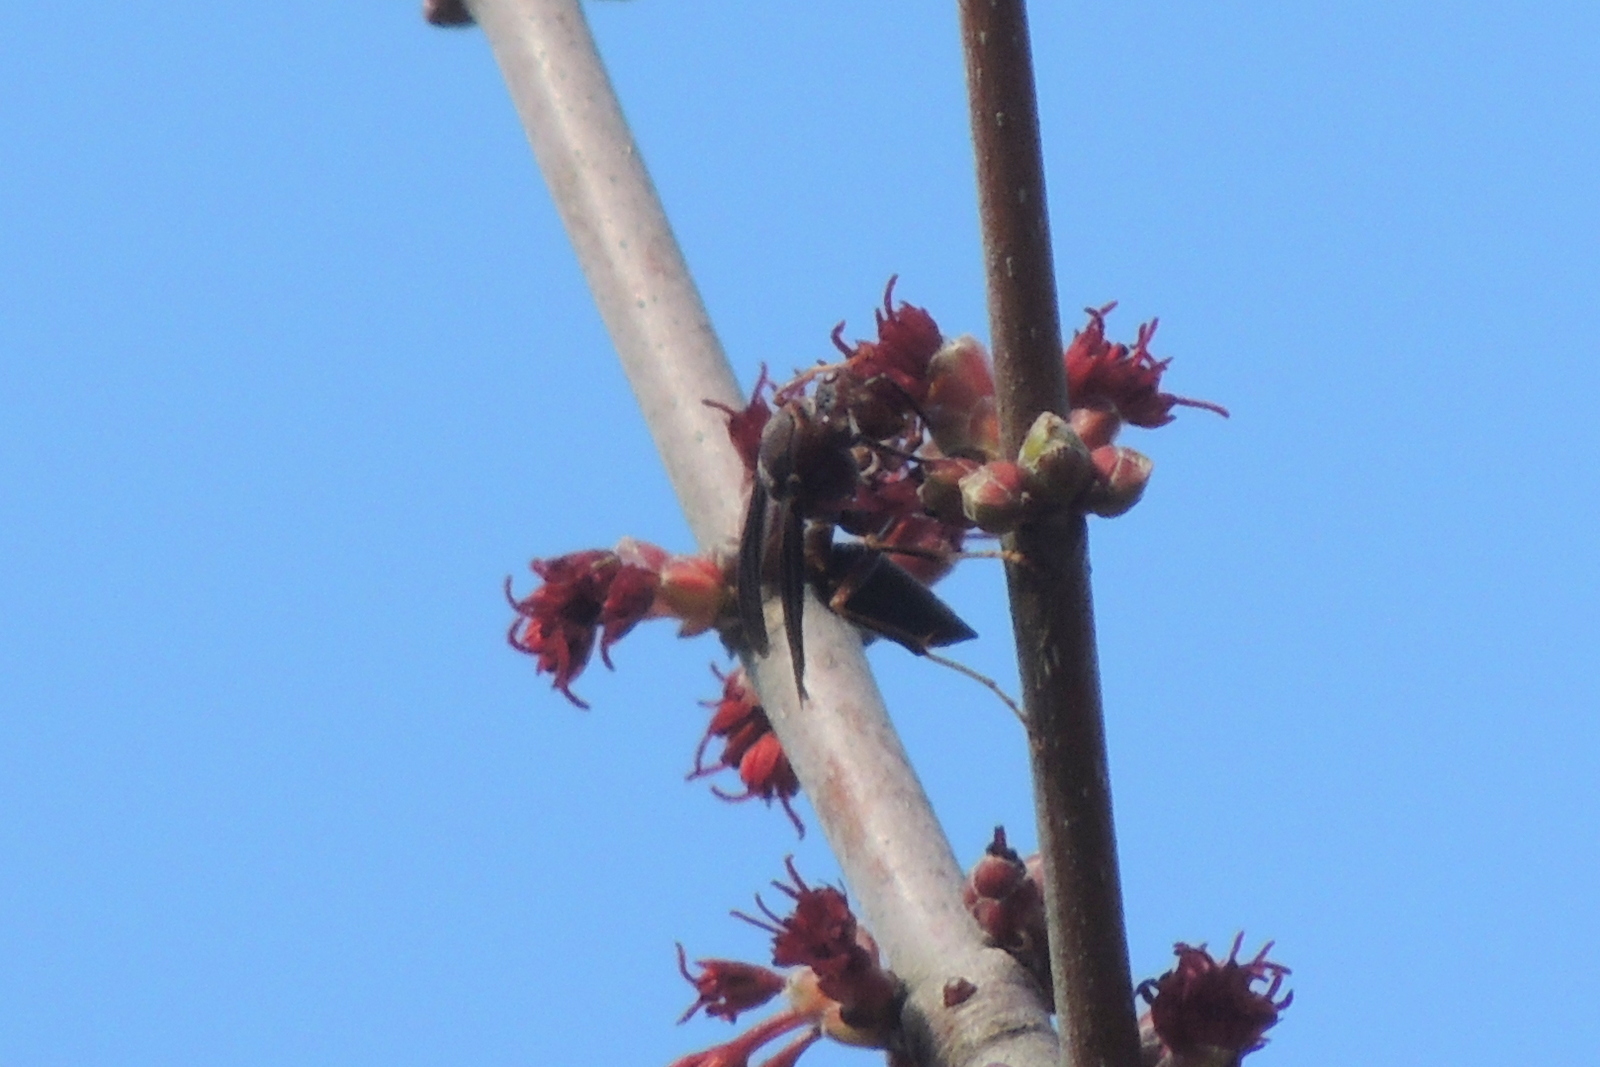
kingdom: Animalia
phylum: Arthropoda
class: Insecta
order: Hymenoptera
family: Eumenidae
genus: Polistes
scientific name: Polistes metricus
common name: Metric paper wasp
